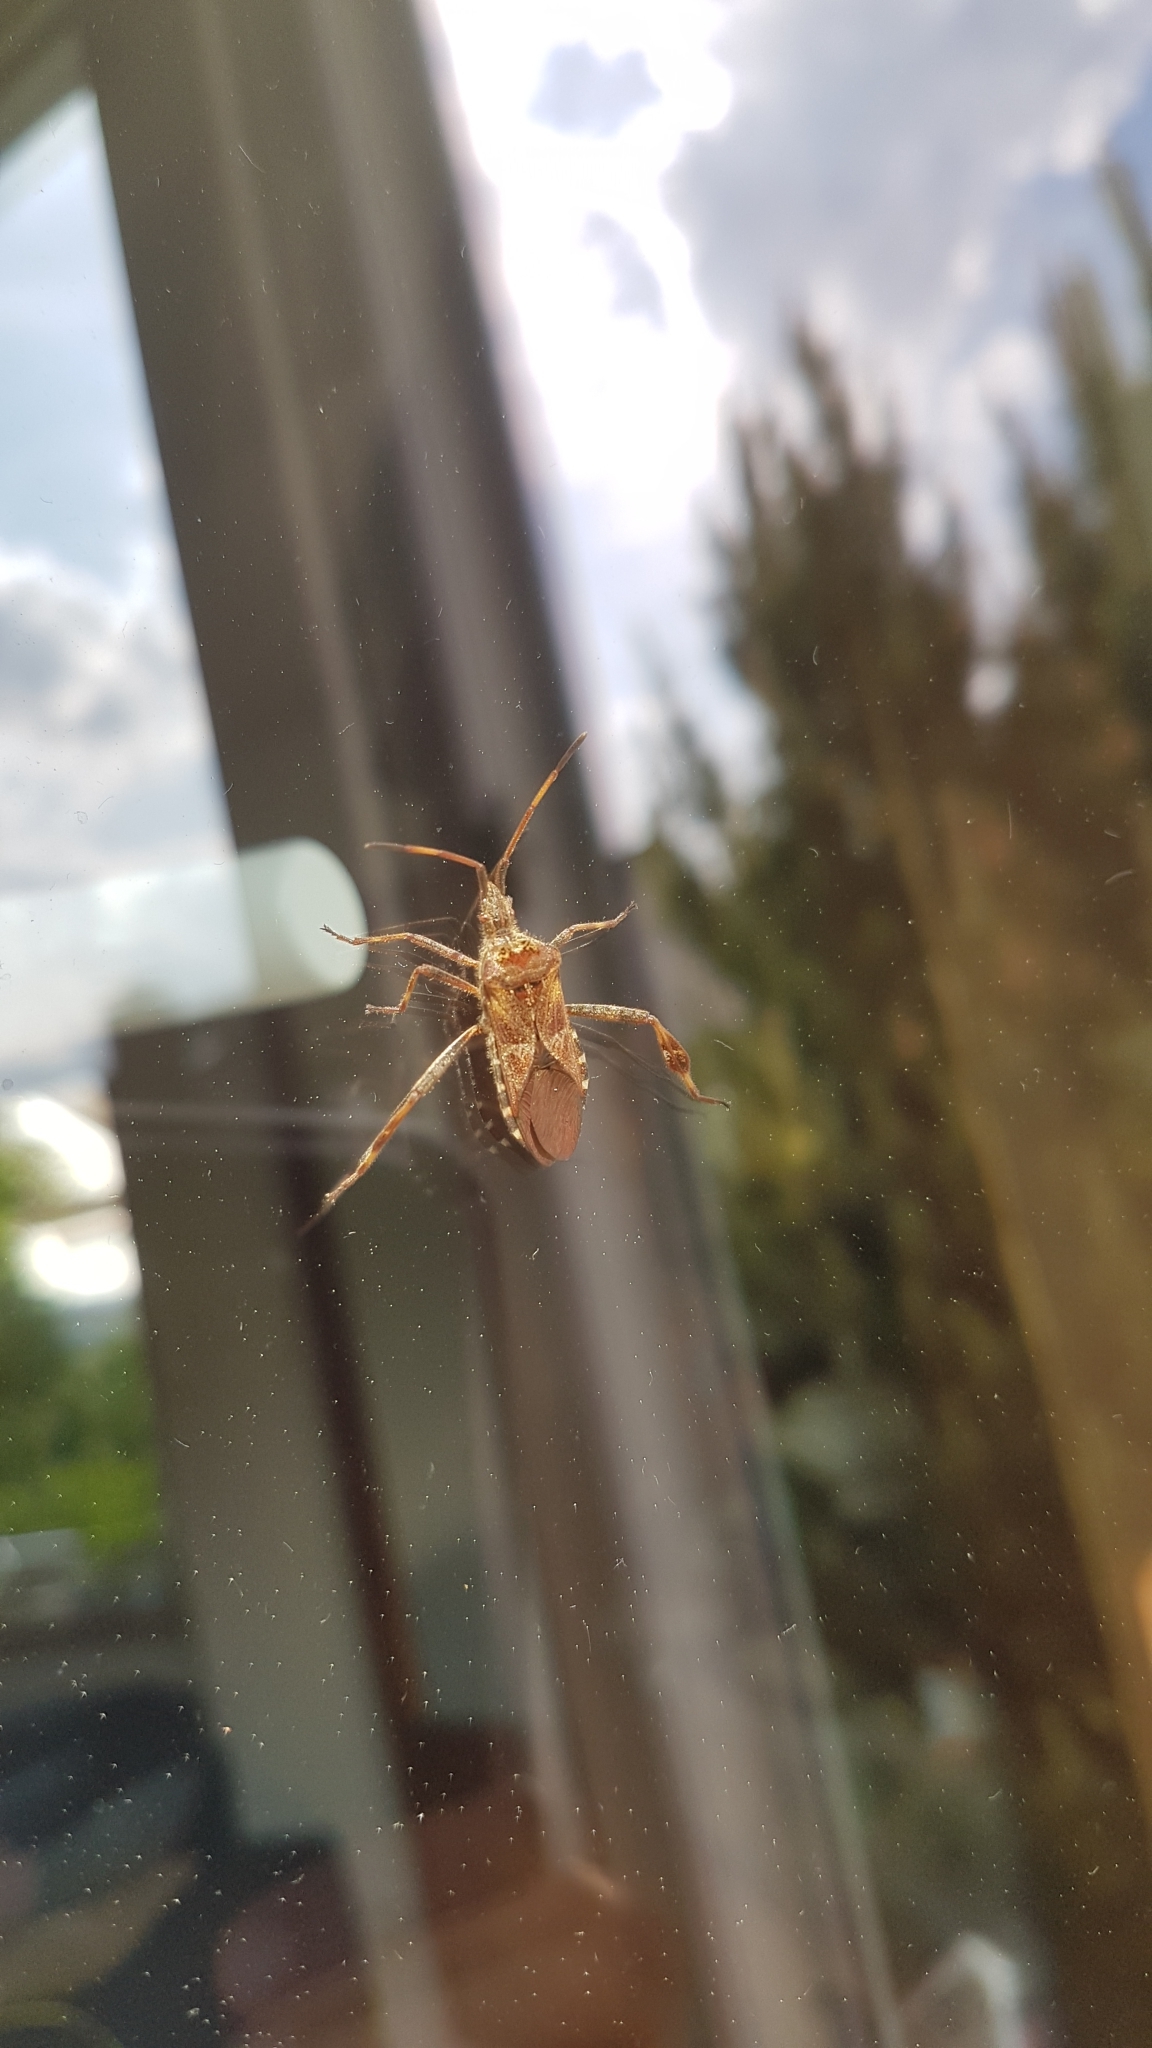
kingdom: Animalia
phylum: Arthropoda
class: Insecta
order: Hemiptera
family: Coreidae
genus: Leptoglossus
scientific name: Leptoglossus occidentalis
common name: Western conifer-seed bug
